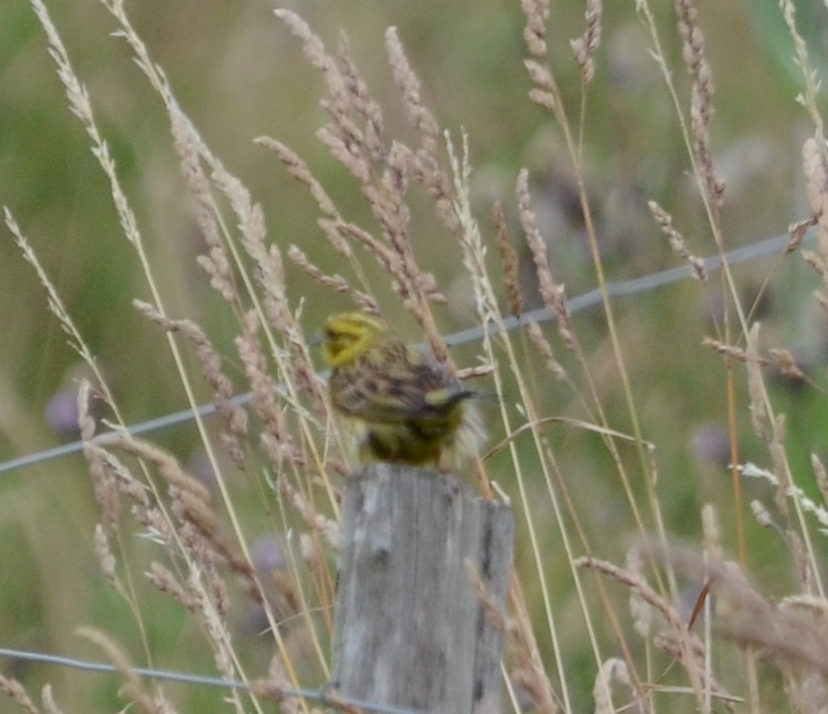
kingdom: Animalia
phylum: Chordata
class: Aves
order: Passeriformes
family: Emberizidae
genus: Emberiza
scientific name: Emberiza citrinella
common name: Yellowhammer
